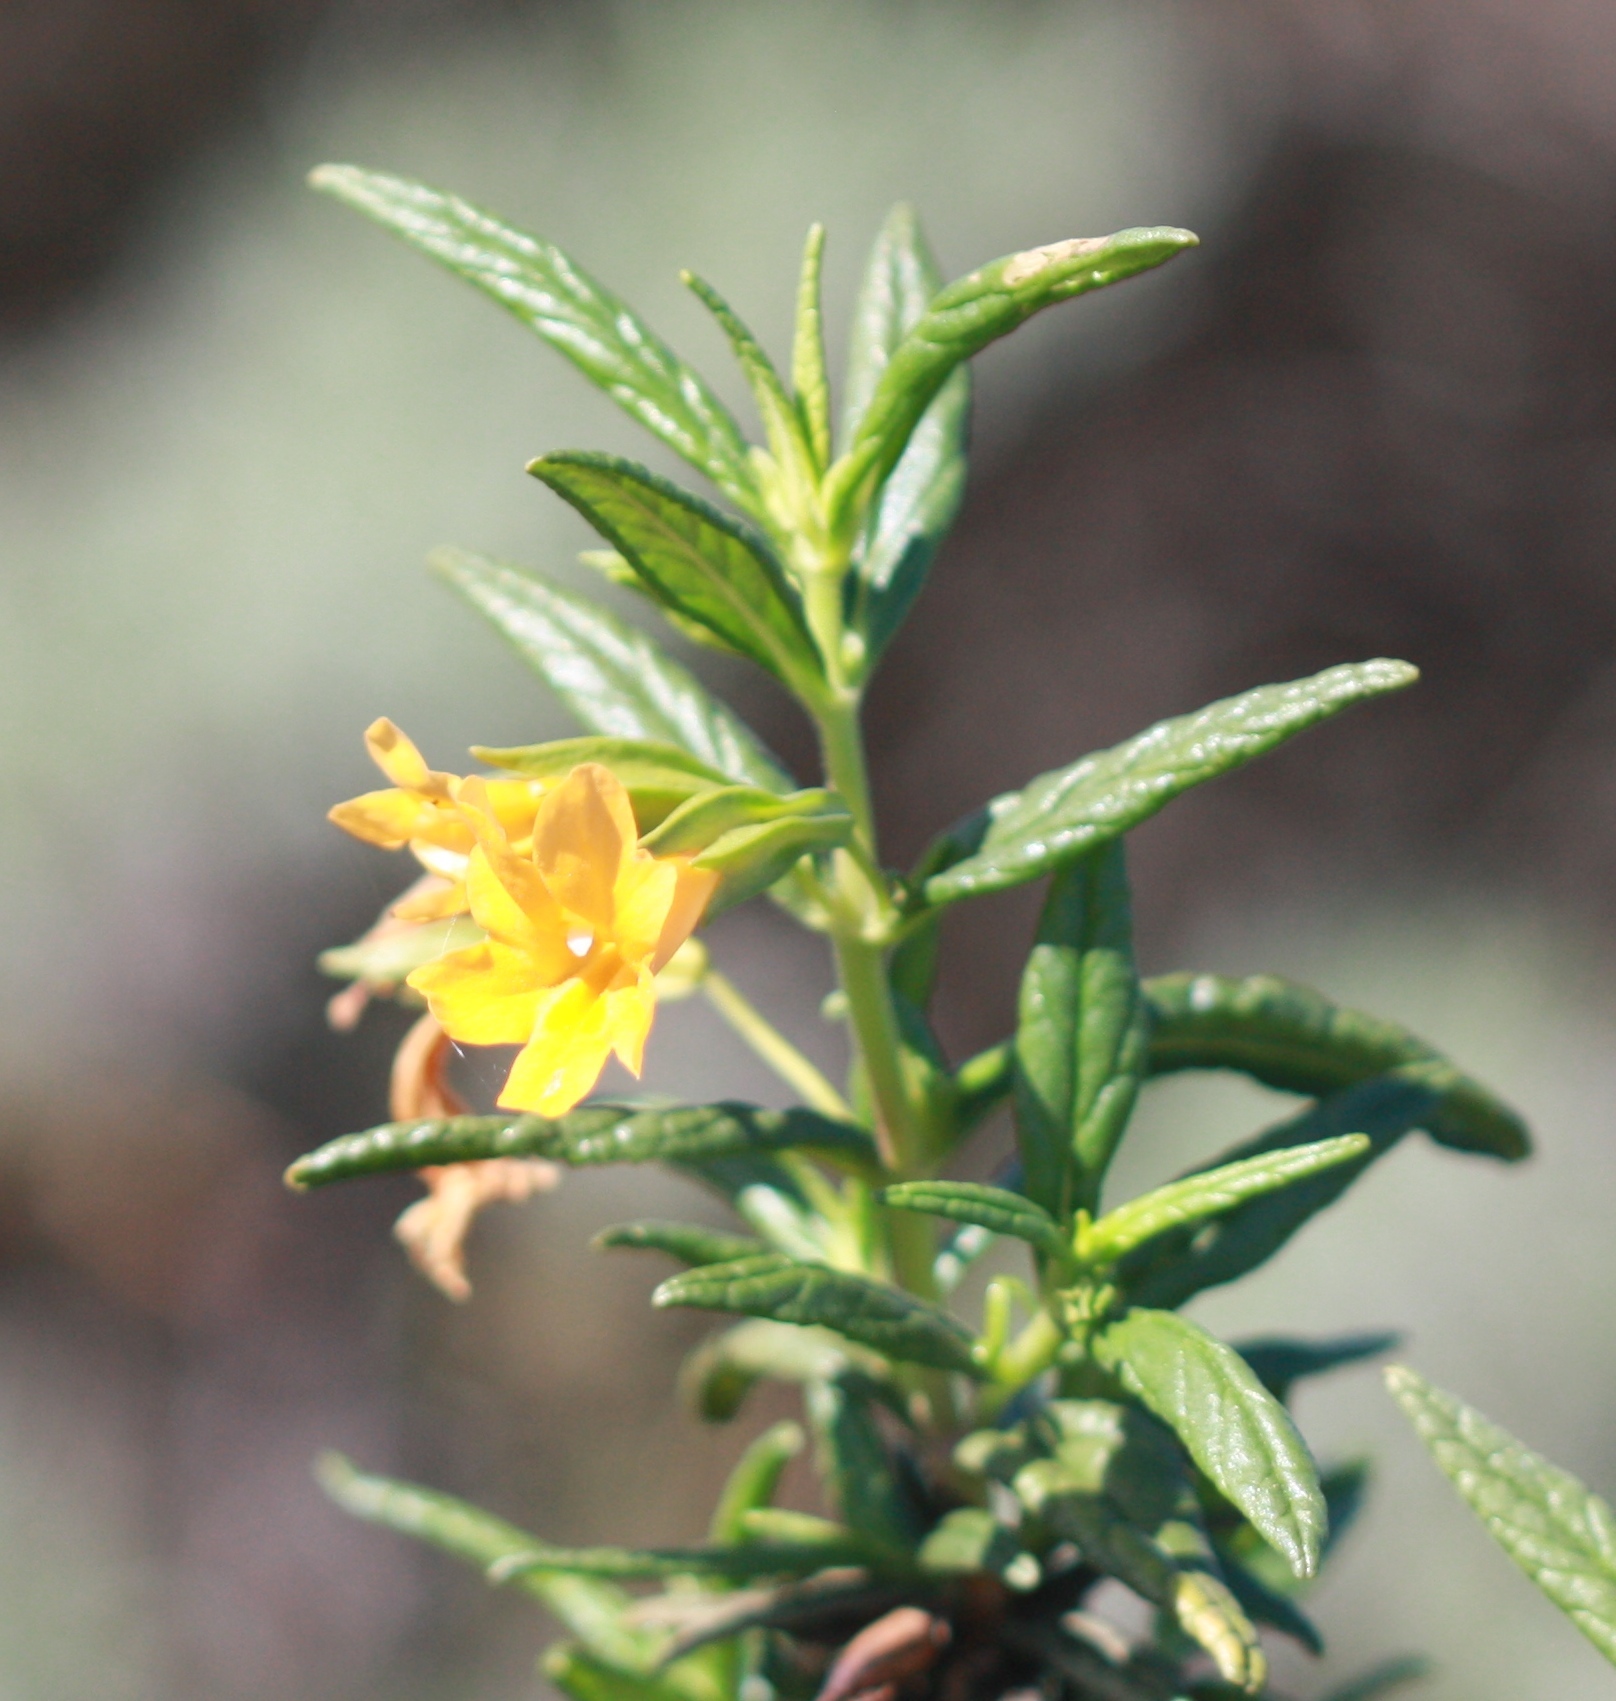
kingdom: Plantae
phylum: Tracheophyta
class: Magnoliopsida
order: Lamiales
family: Phrymaceae
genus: Diplacus
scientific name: Diplacus aurantiacus
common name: Bush monkey-flower
